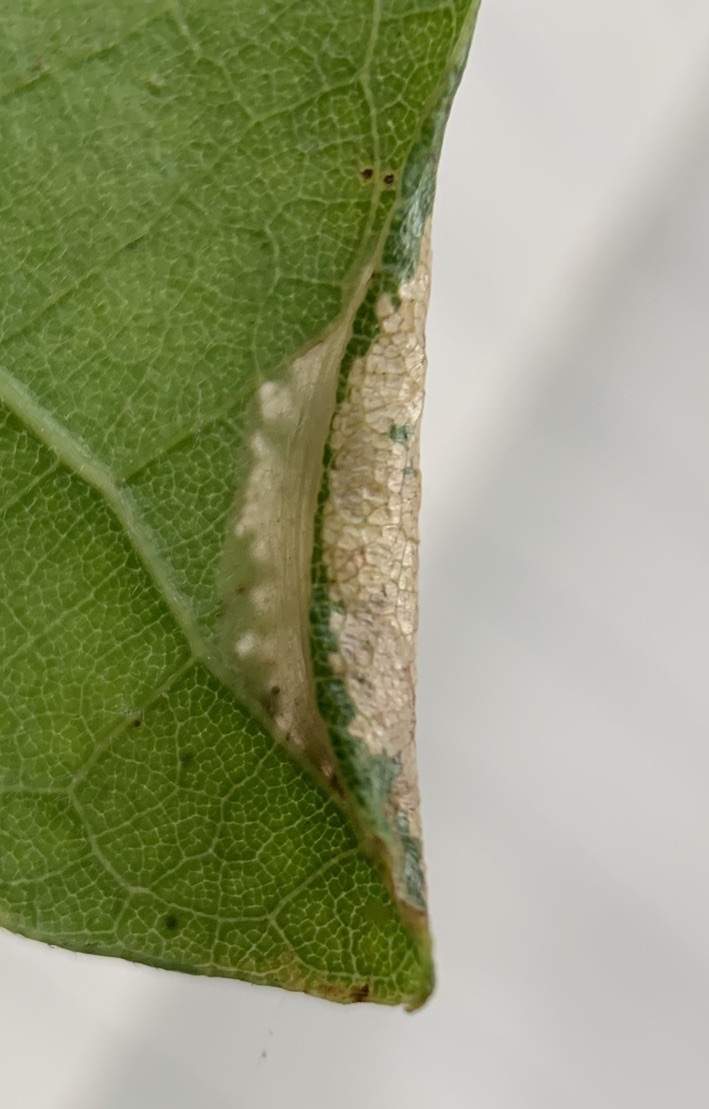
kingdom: Animalia
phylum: Arthropoda
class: Insecta
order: Lepidoptera
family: Gracillariidae
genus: Phyllonorycter
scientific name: Phyllonorycter albanotella
